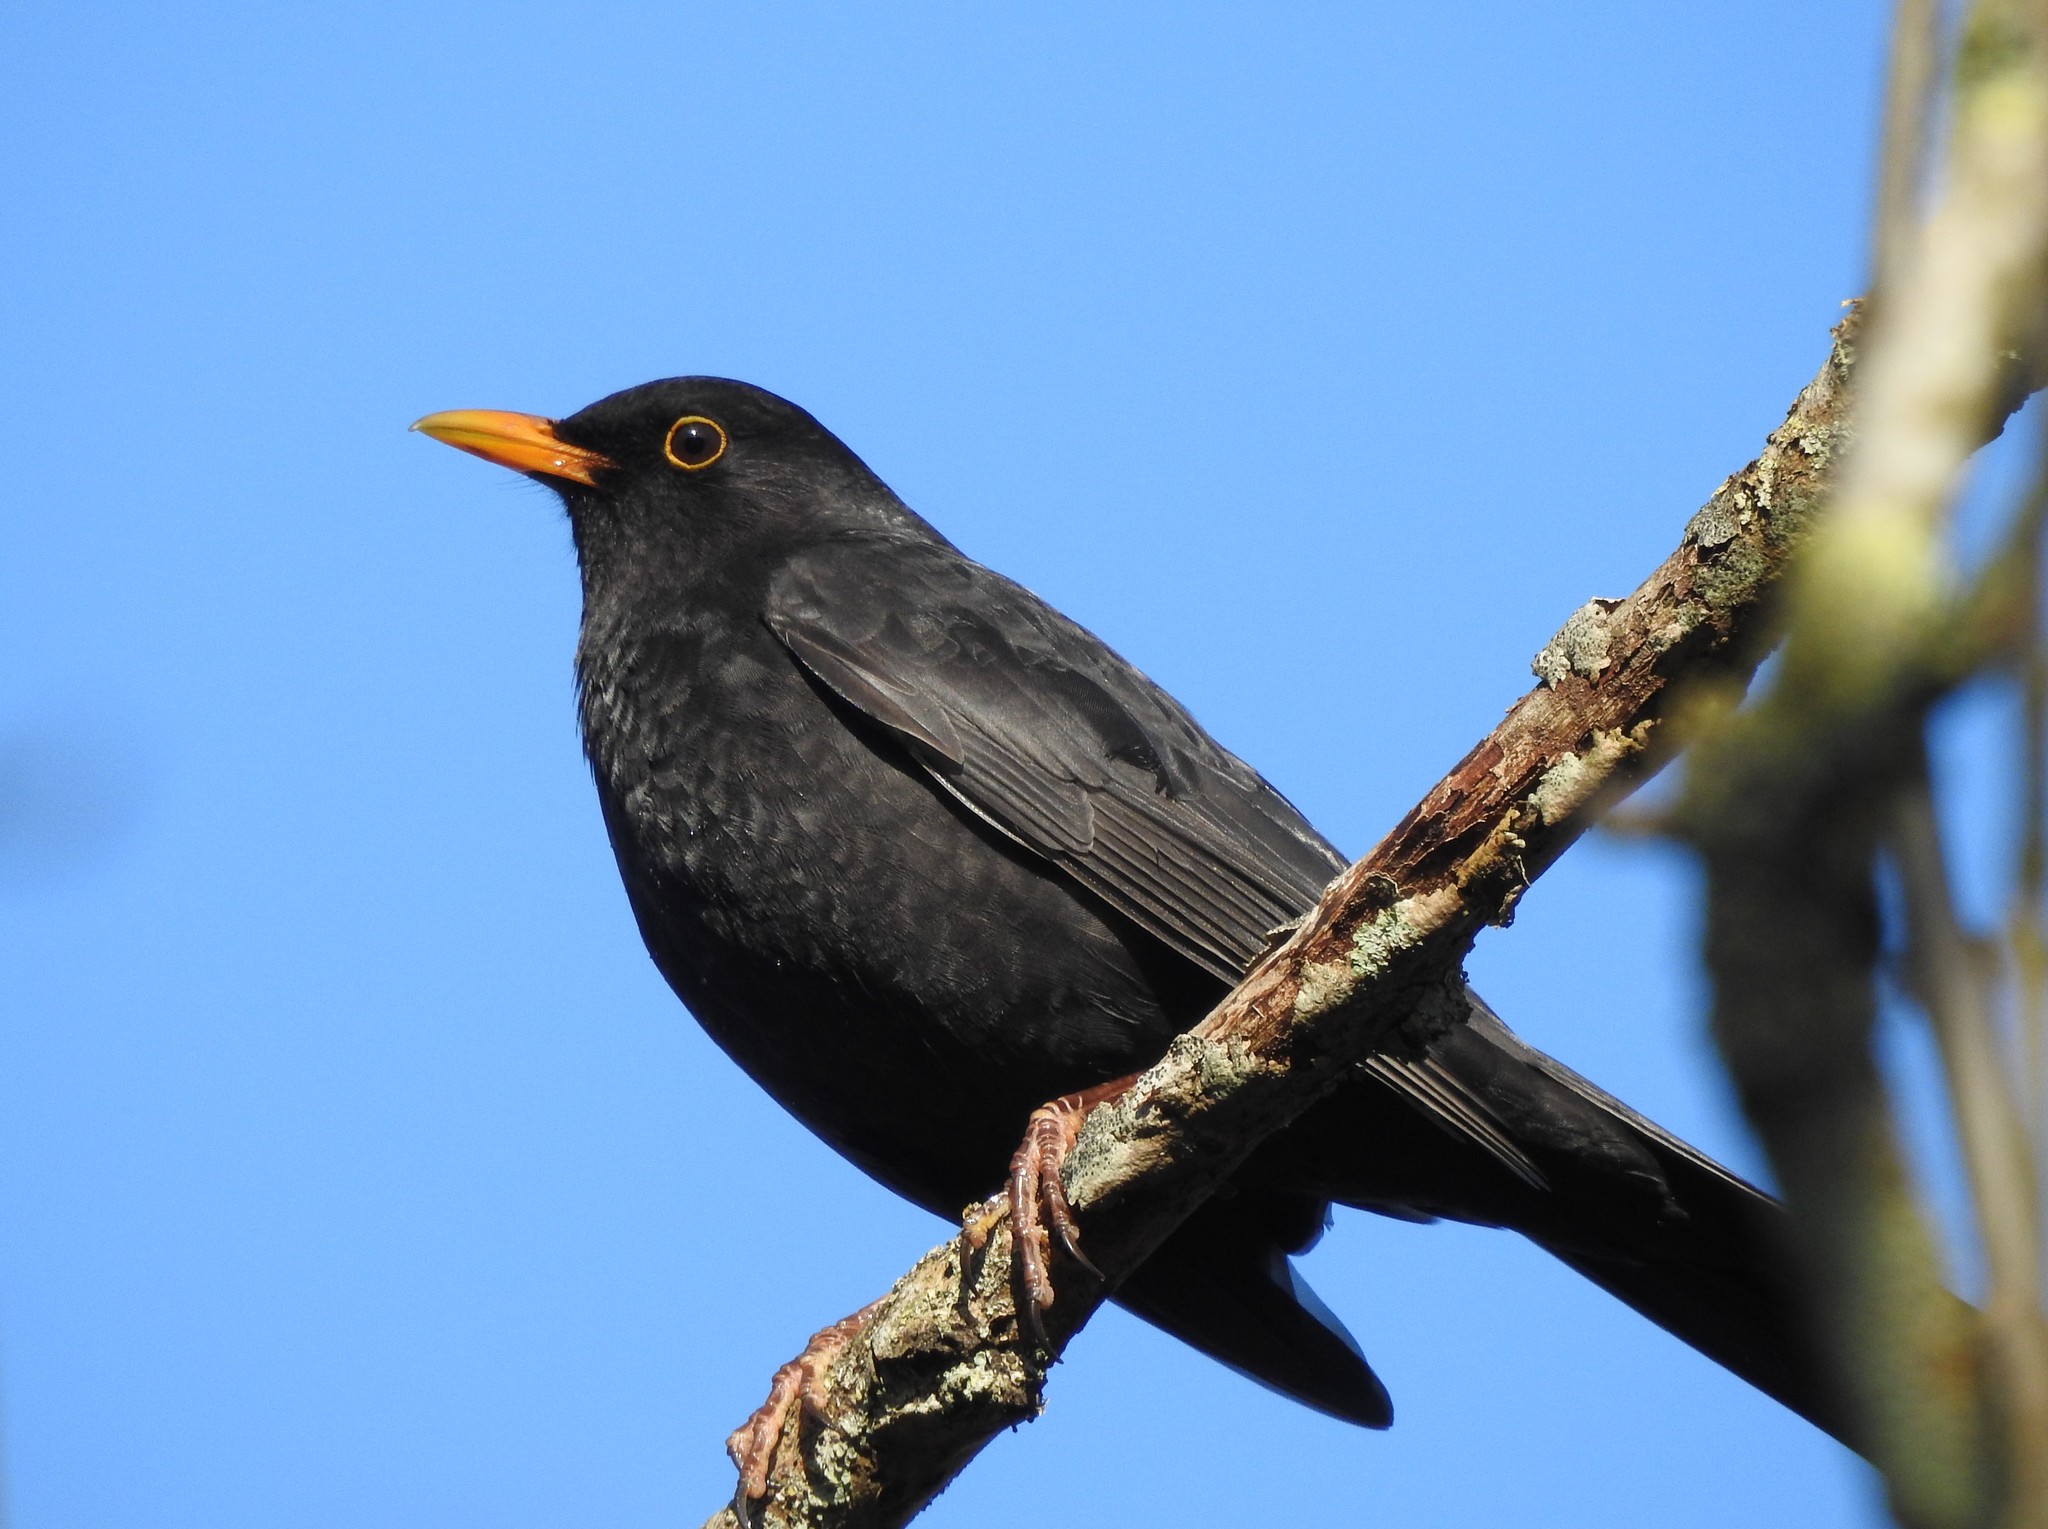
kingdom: Animalia
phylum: Chordata
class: Aves
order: Passeriformes
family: Turdidae
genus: Turdus
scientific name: Turdus merula
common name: Common blackbird
